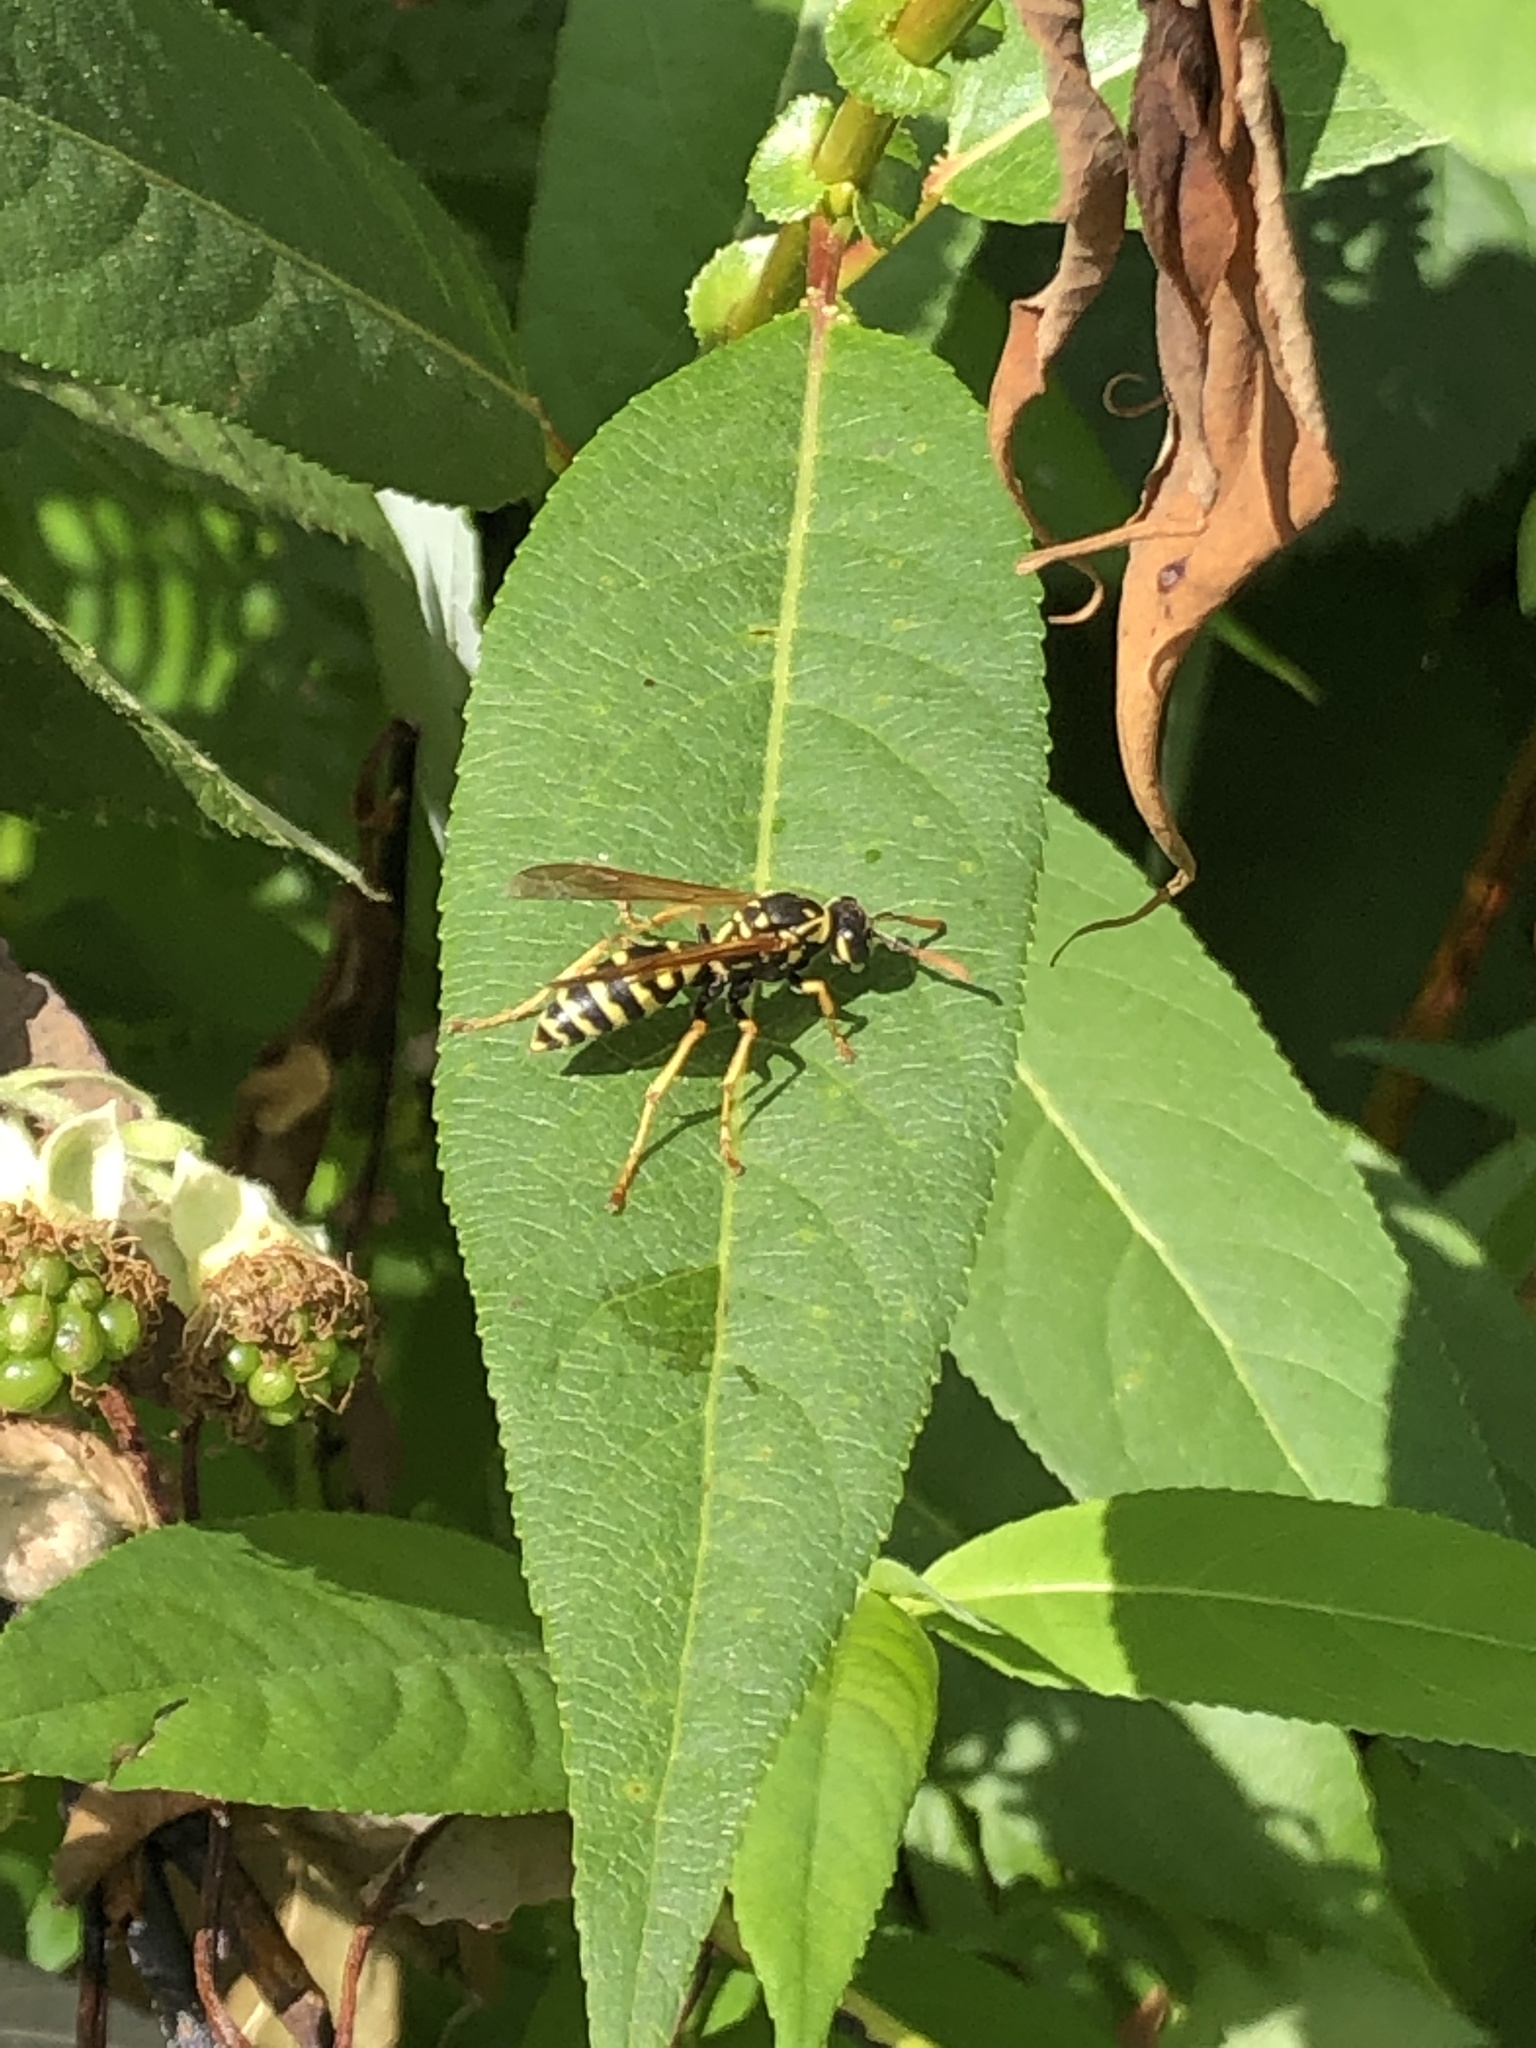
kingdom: Animalia
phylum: Arthropoda
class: Insecta
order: Hymenoptera
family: Eumenidae
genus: Polistes
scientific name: Polistes dominula
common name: Paper wasp
